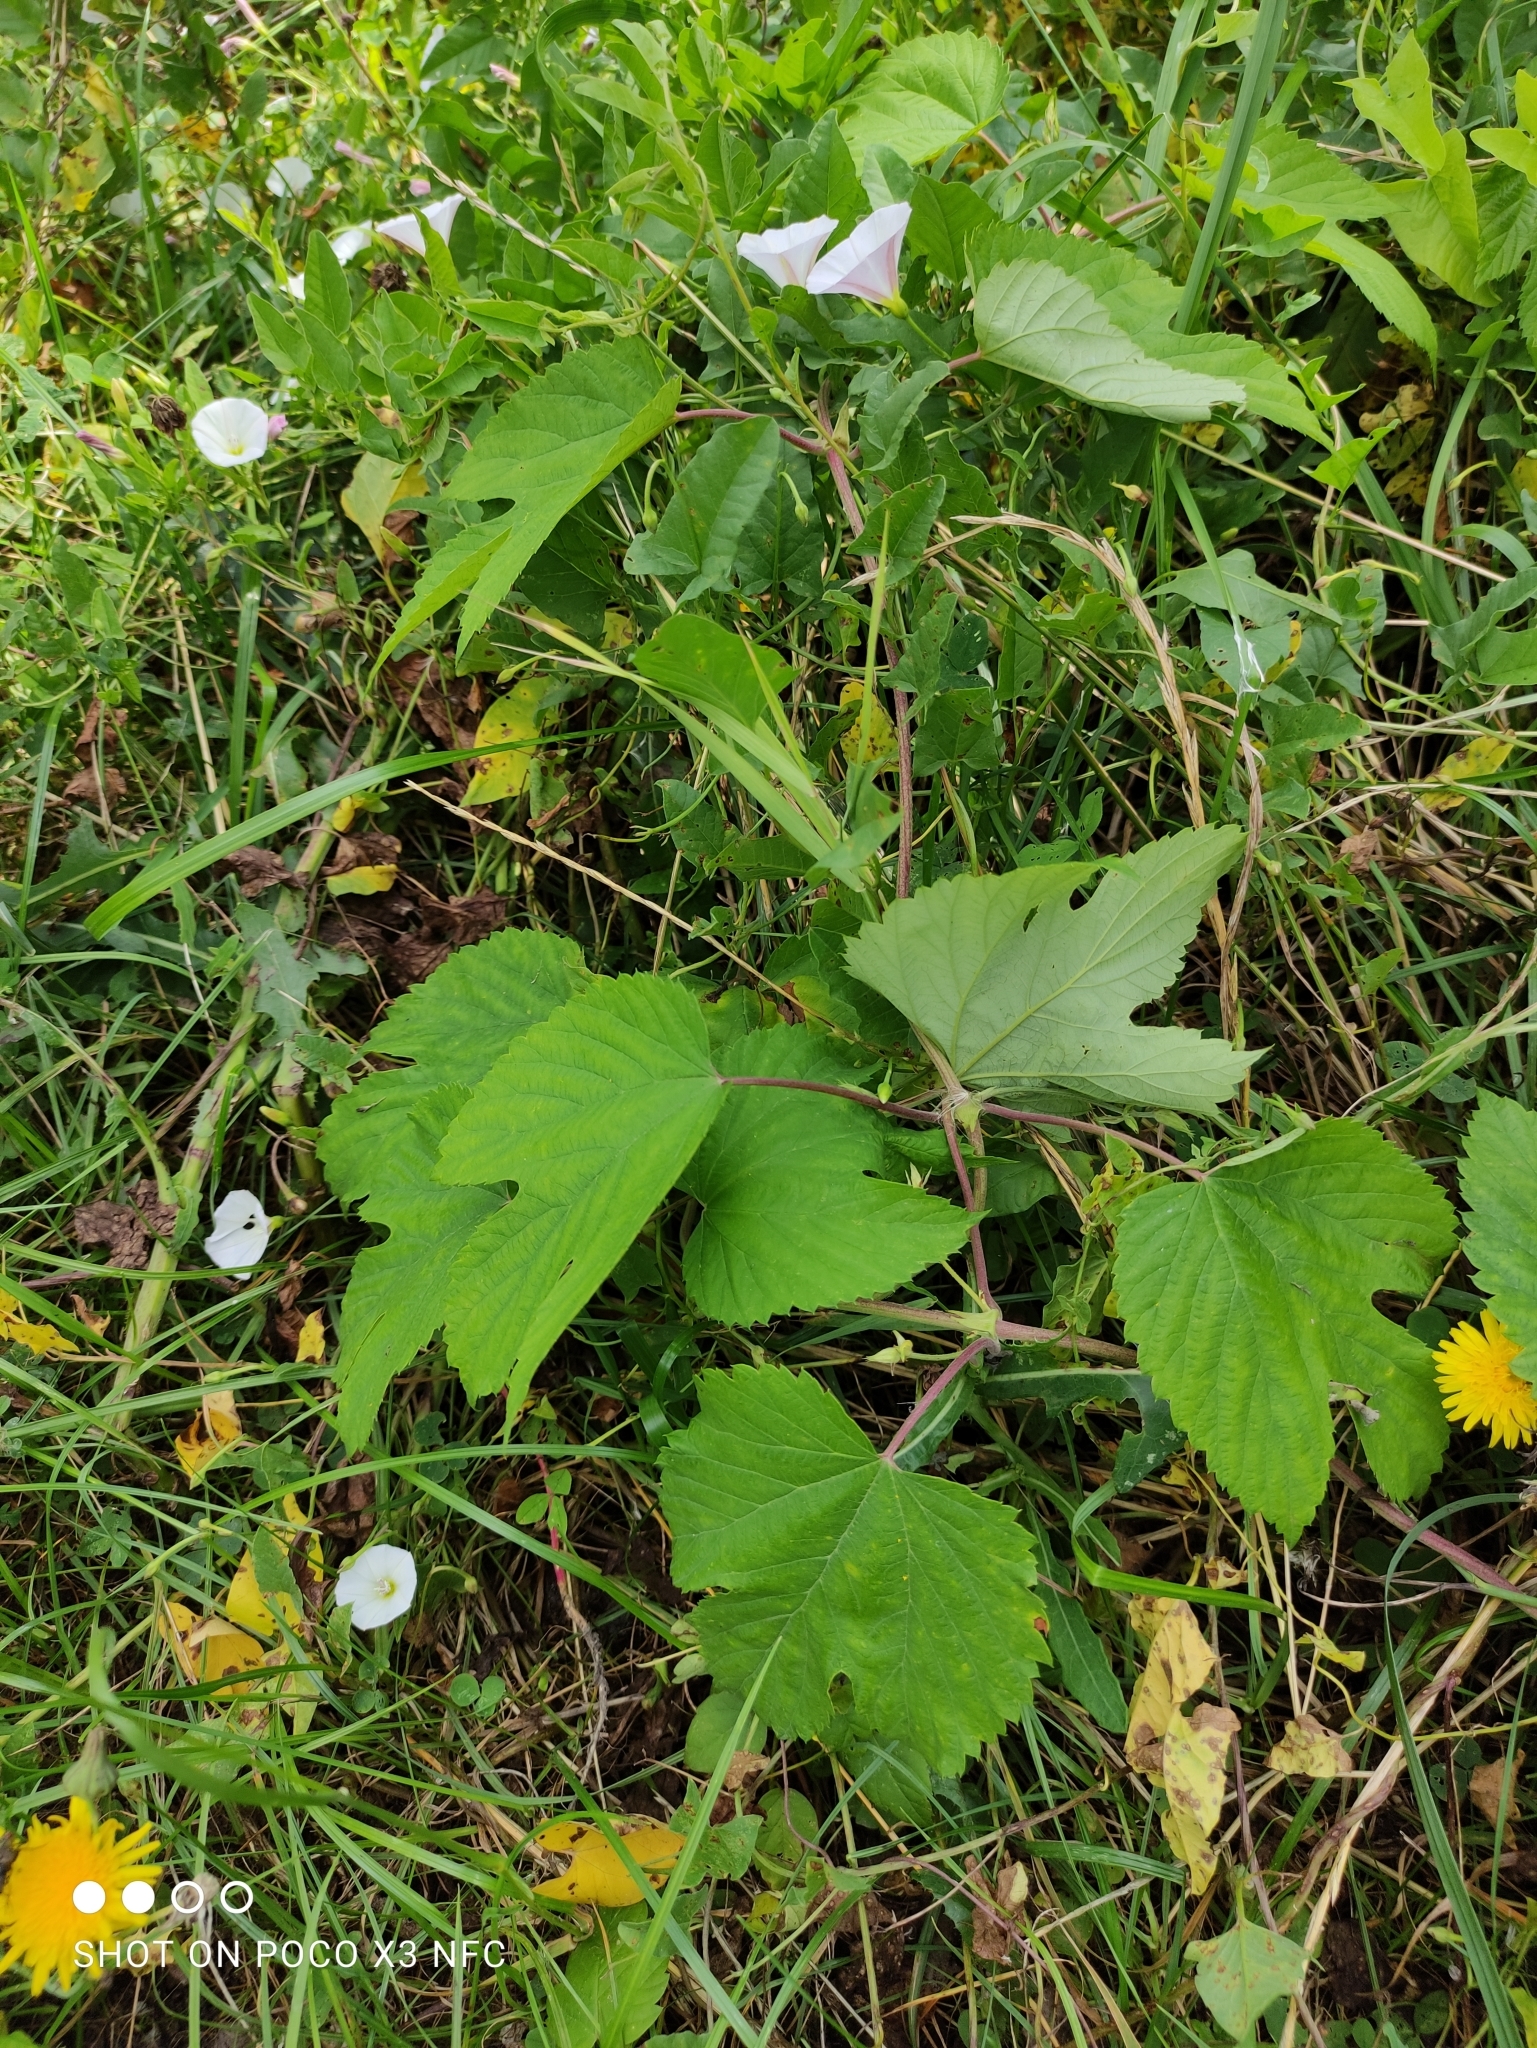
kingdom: Plantae
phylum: Tracheophyta
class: Magnoliopsida
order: Rosales
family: Cannabaceae
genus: Humulus
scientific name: Humulus lupulus
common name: Hop
